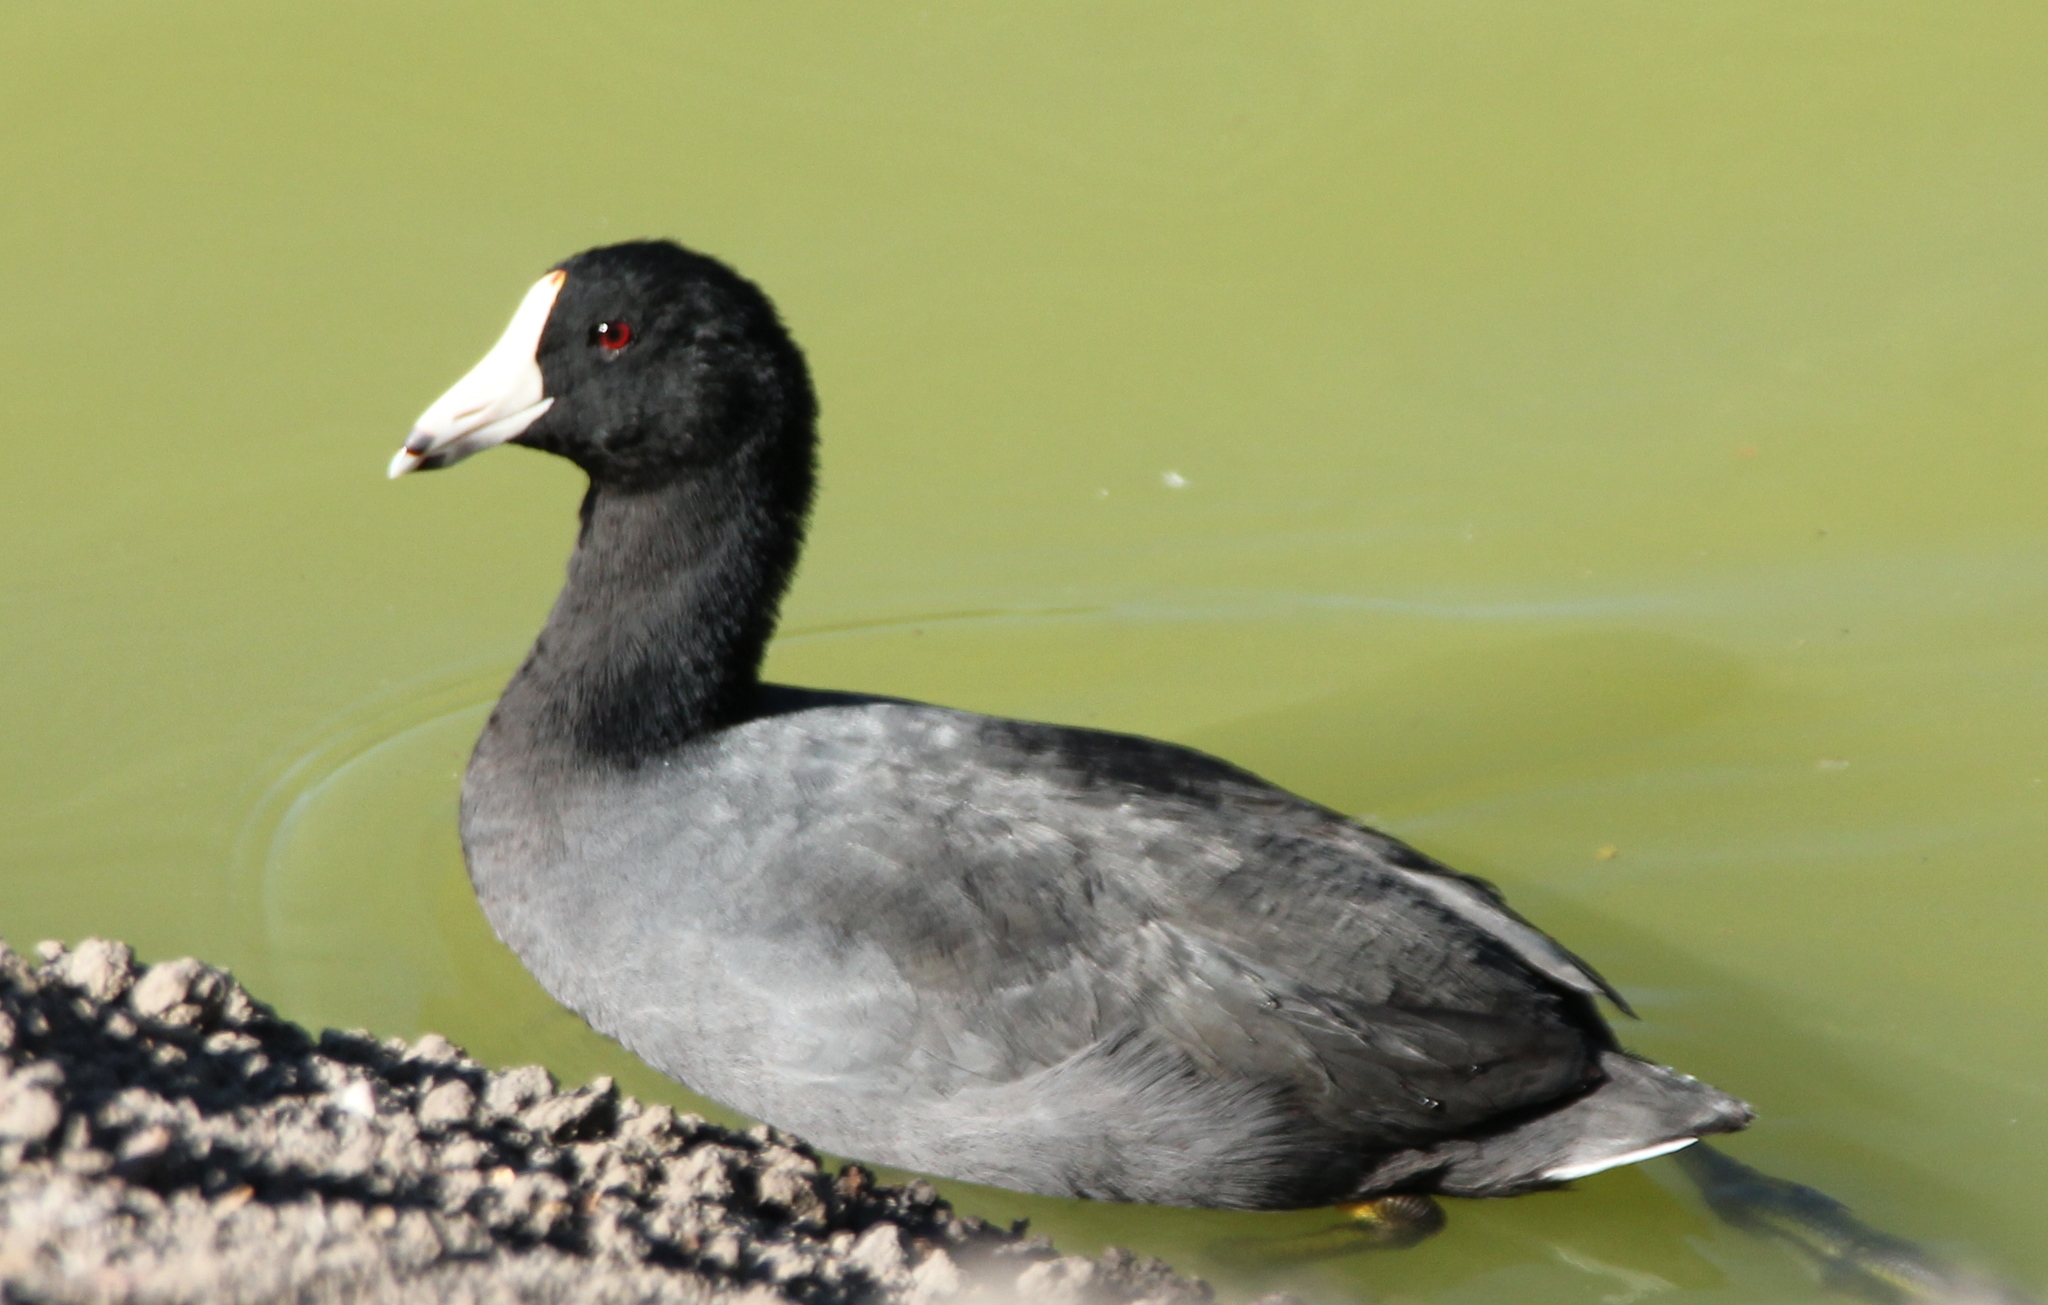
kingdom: Animalia
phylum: Chordata
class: Aves
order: Gruiformes
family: Rallidae
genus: Fulica
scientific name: Fulica americana
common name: American coot
